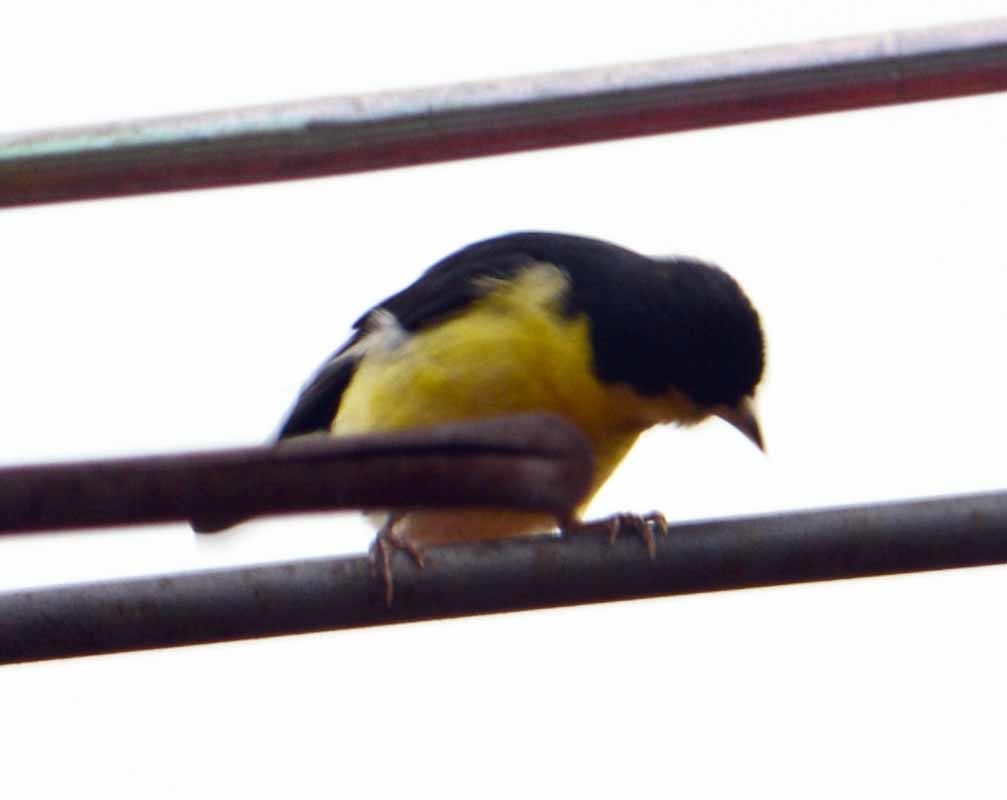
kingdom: Animalia
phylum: Chordata
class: Aves
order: Passeriformes
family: Fringillidae
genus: Spinus
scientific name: Spinus psaltria
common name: Lesser goldfinch
